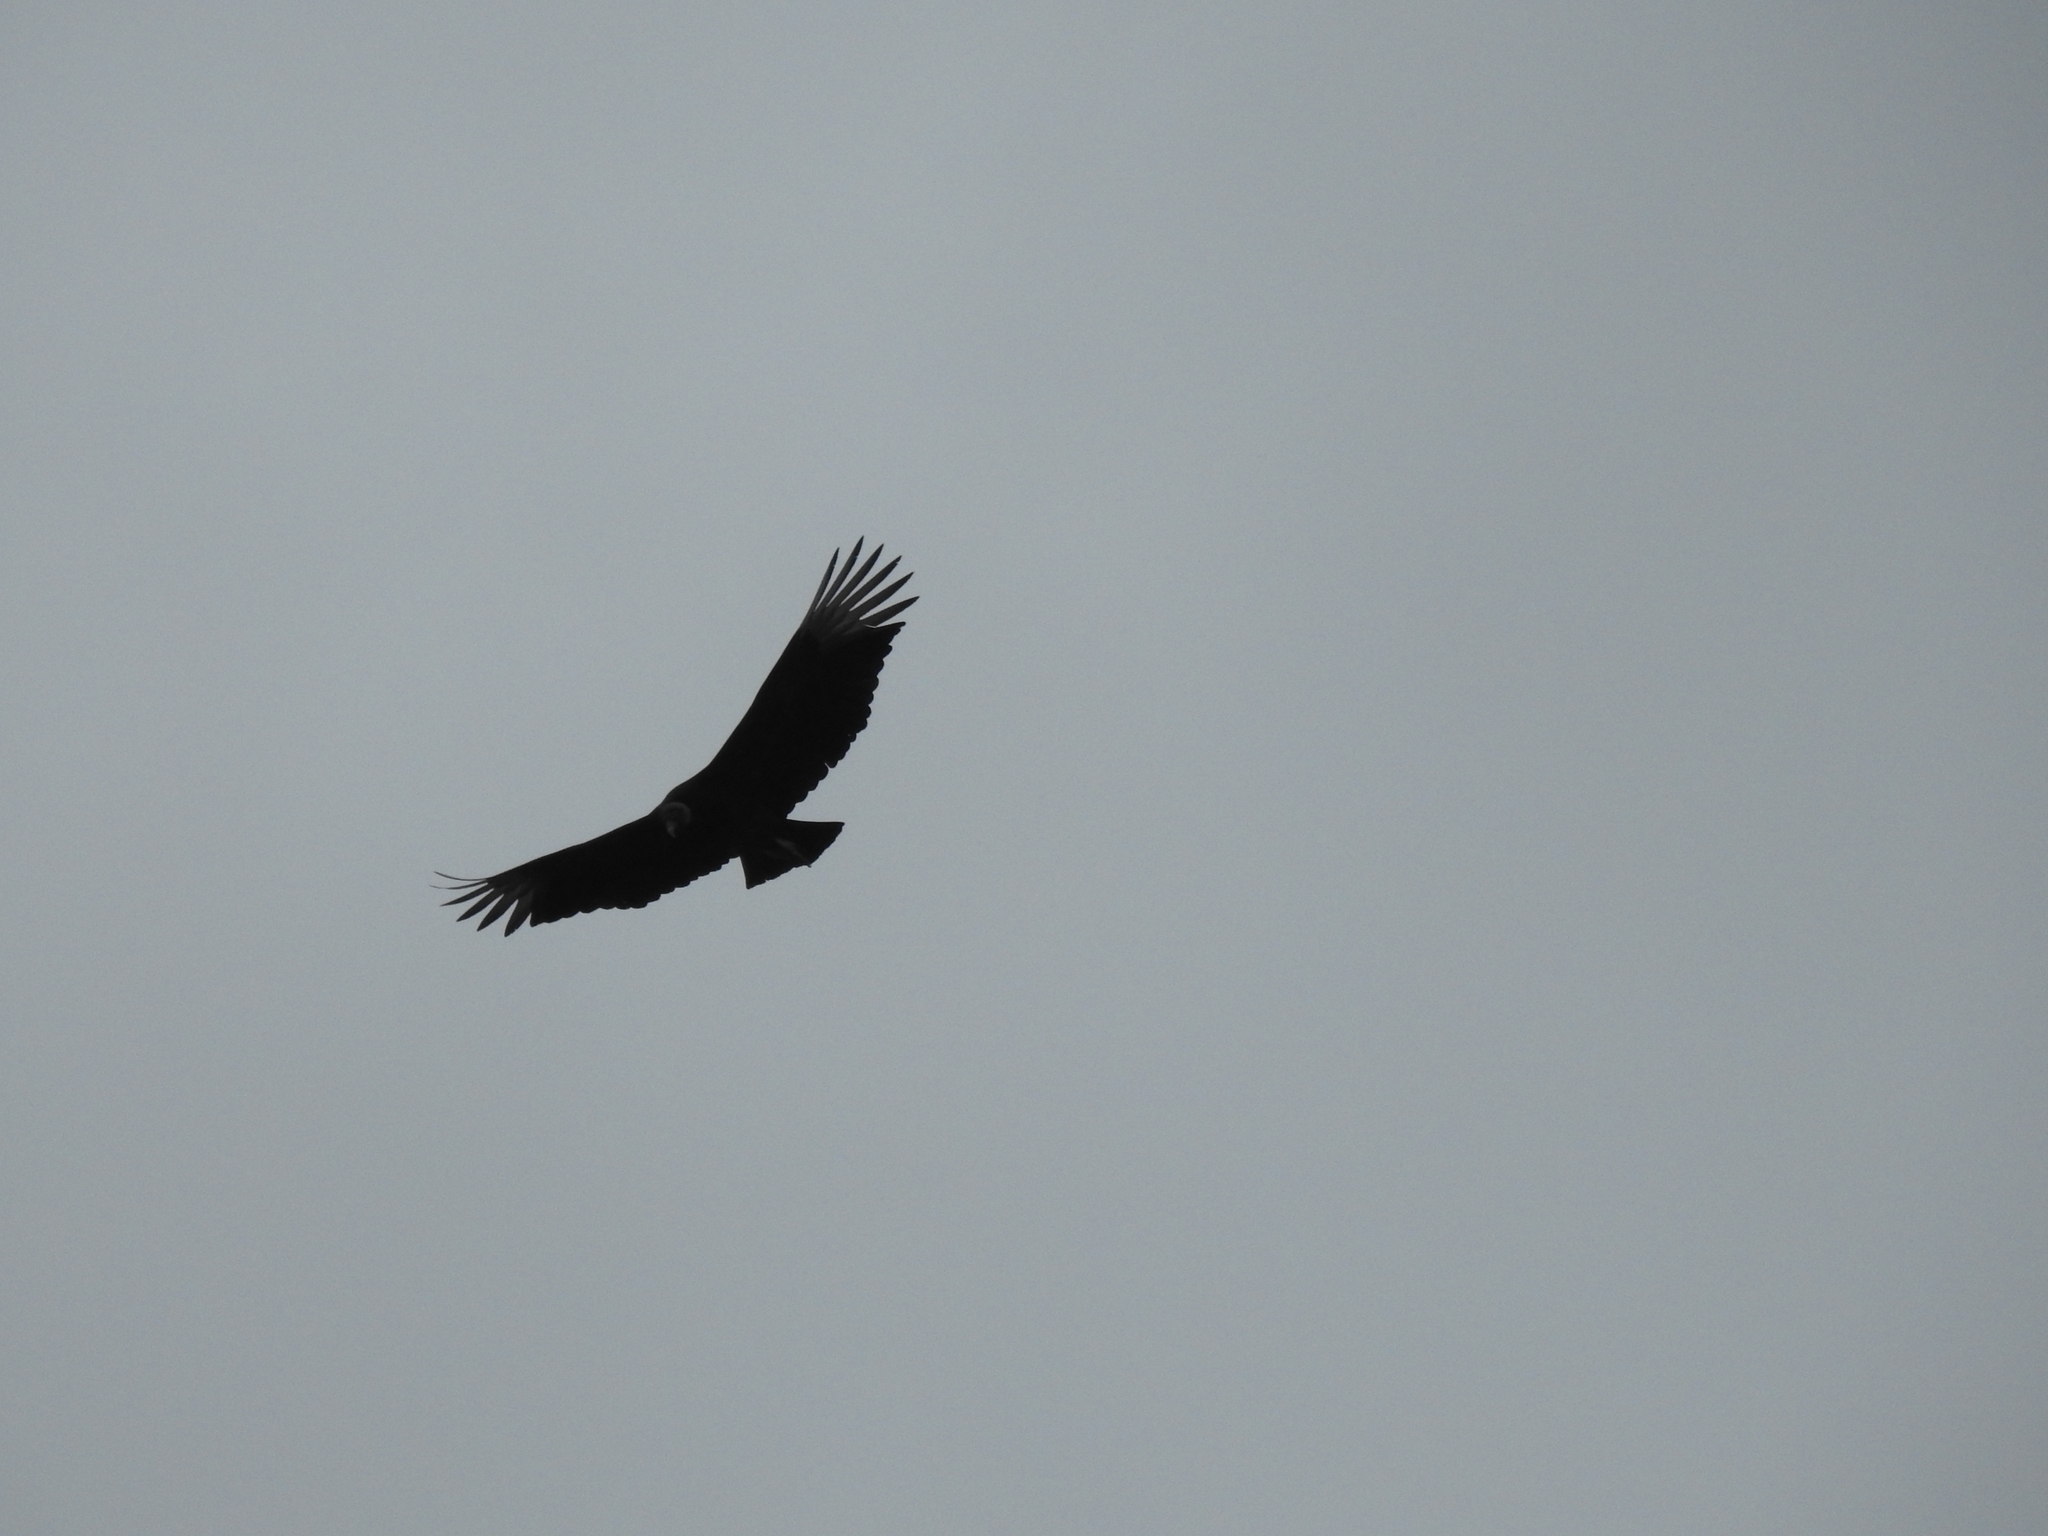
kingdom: Animalia
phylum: Chordata
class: Aves
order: Accipitriformes
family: Cathartidae
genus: Coragyps
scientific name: Coragyps atratus
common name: Black vulture
